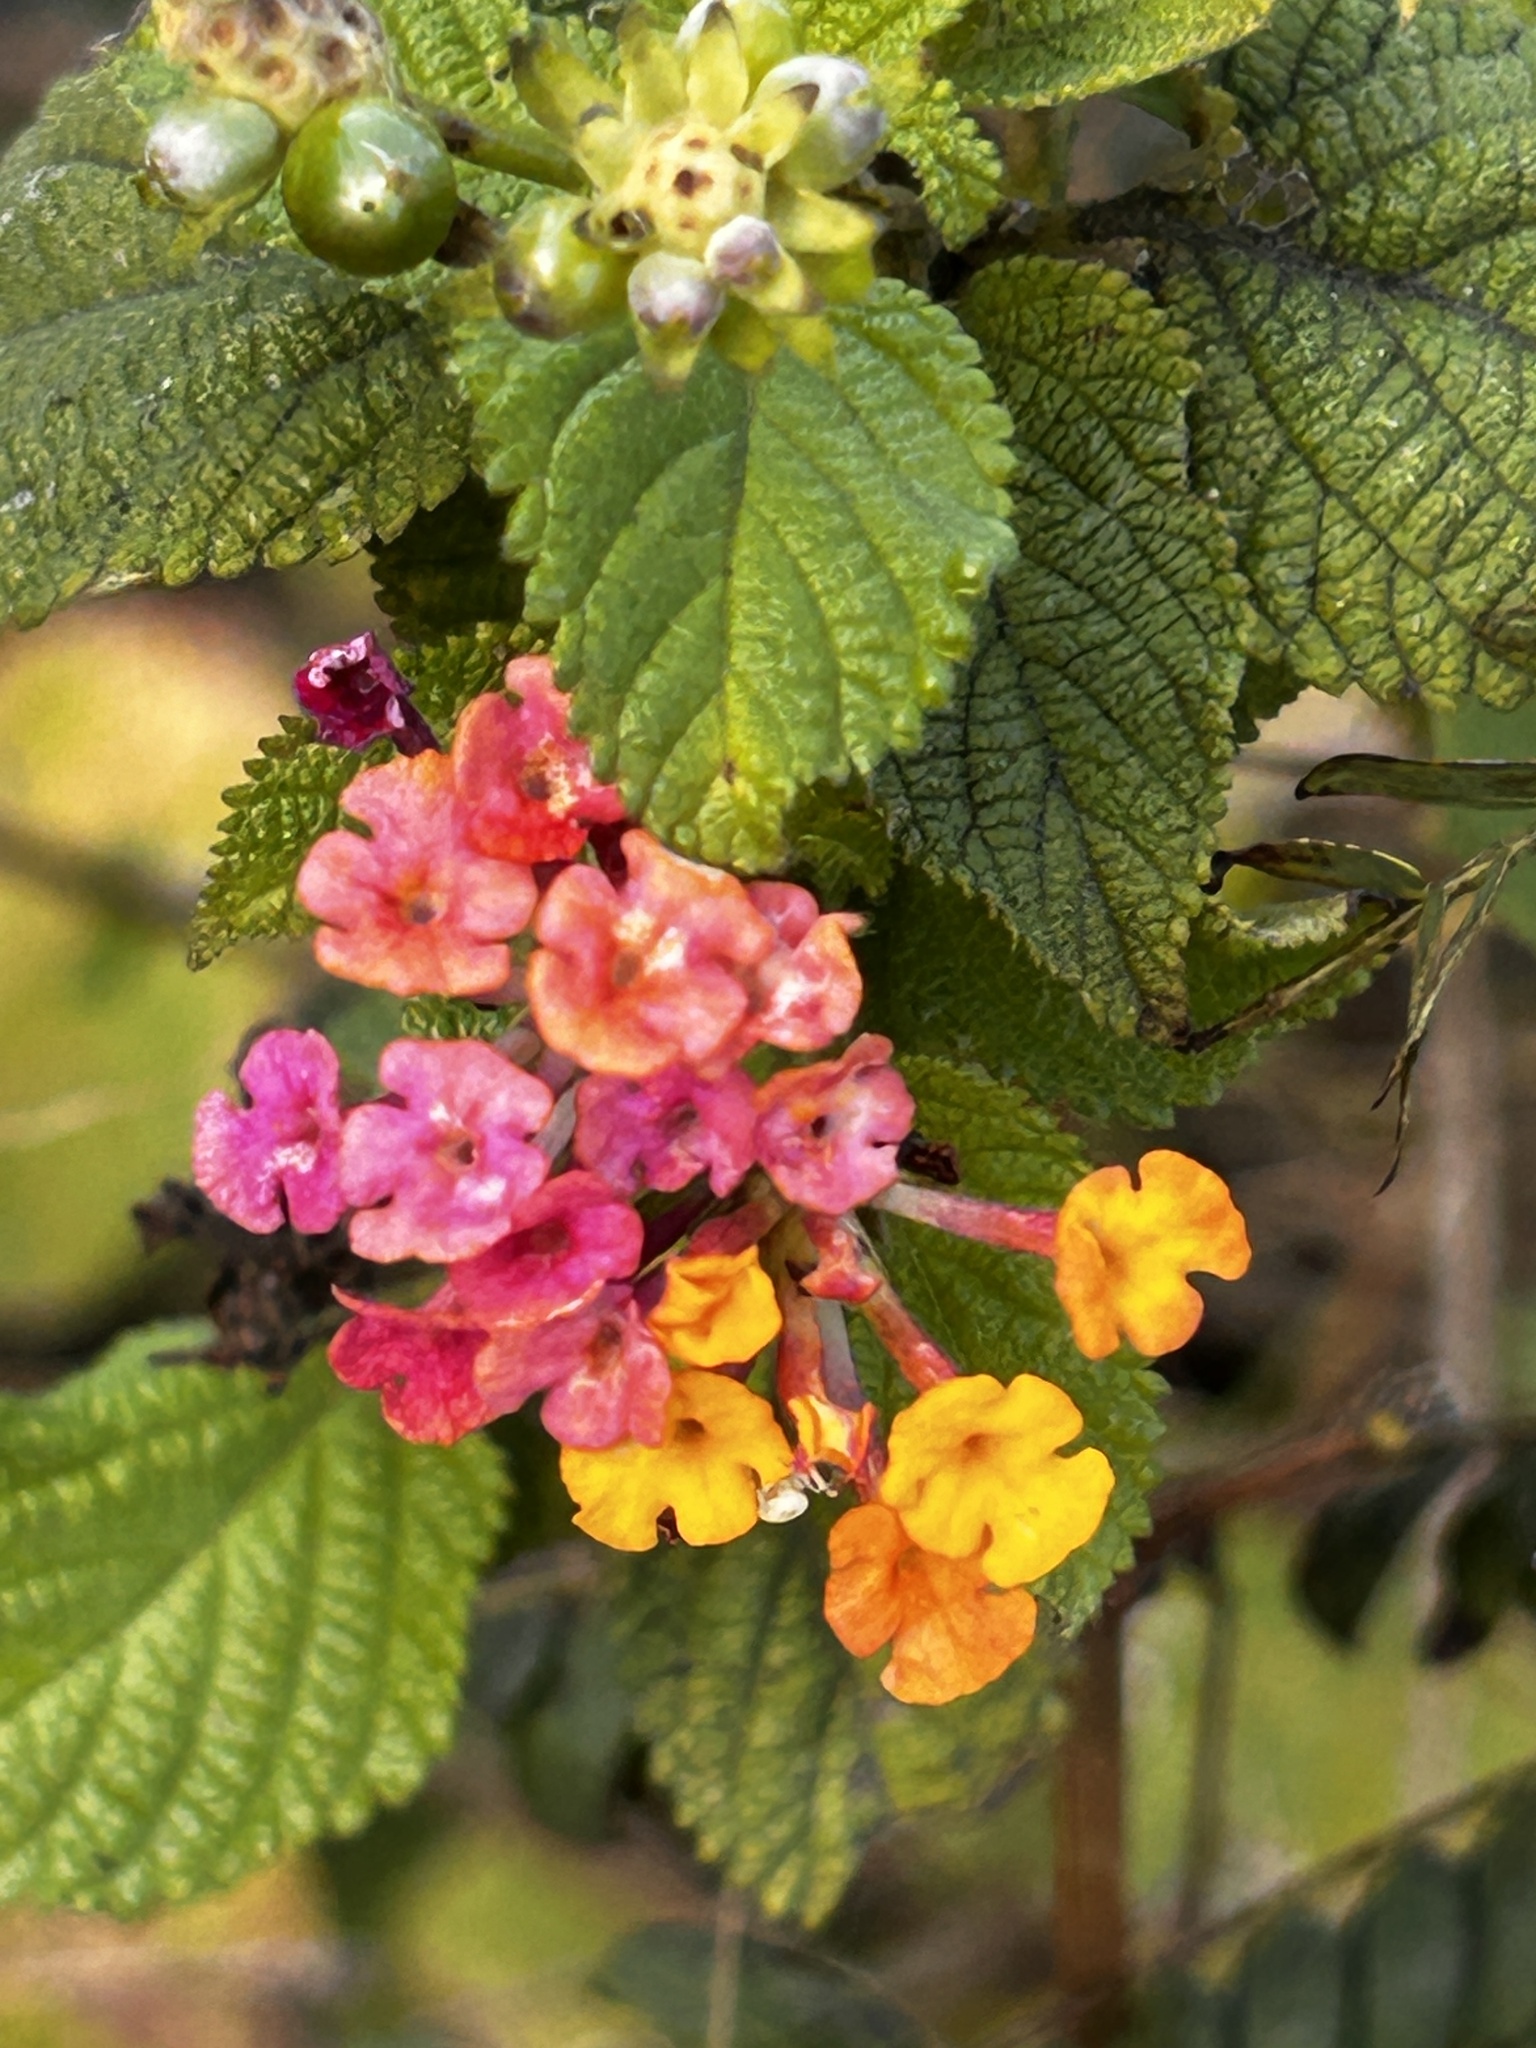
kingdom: Plantae
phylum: Tracheophyta
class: Magnoliopsida
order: Lamiales
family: Verbenaceae
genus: Lantana
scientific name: Lantana camara
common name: Lantana
